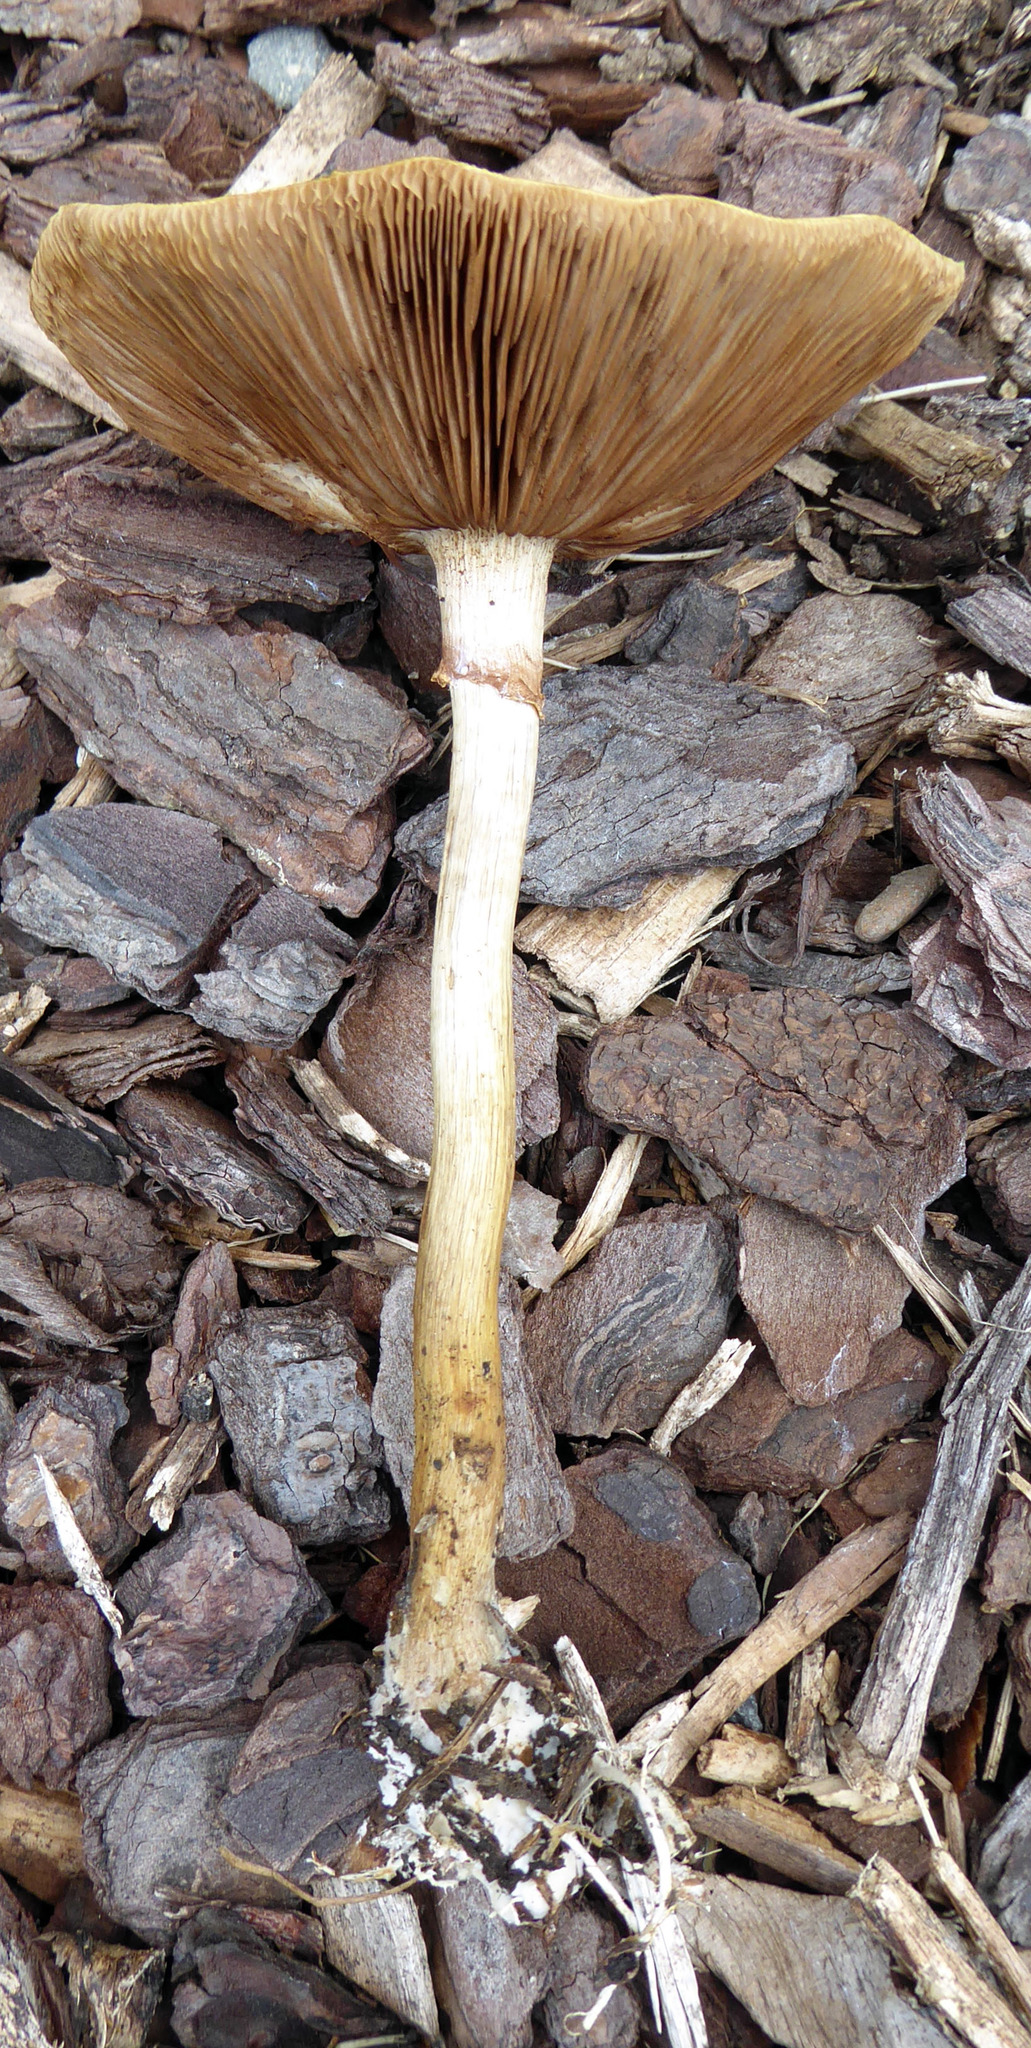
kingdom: Fungi
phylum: Basidiomycota
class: Agaricomycetes
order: Agaricales
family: Strophariaceae
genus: Agrocybe
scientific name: Agrocybe praecox
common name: Spring fieldcap
